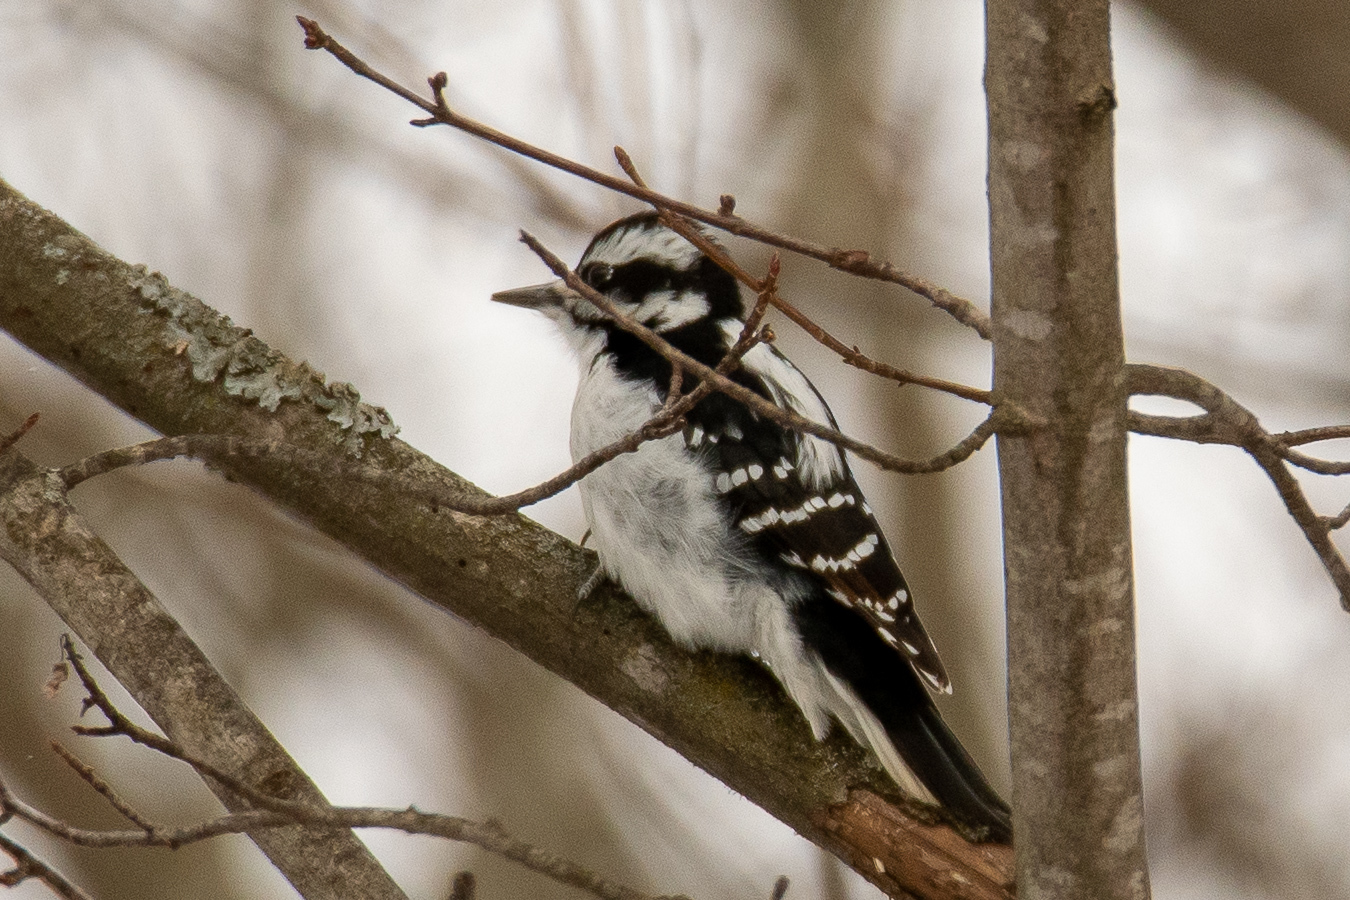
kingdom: Animalia
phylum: Chordata
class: Aves
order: Piciformes
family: Picidae
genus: Dryobates
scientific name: Dryobates pubescens
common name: Downy woodpecker
